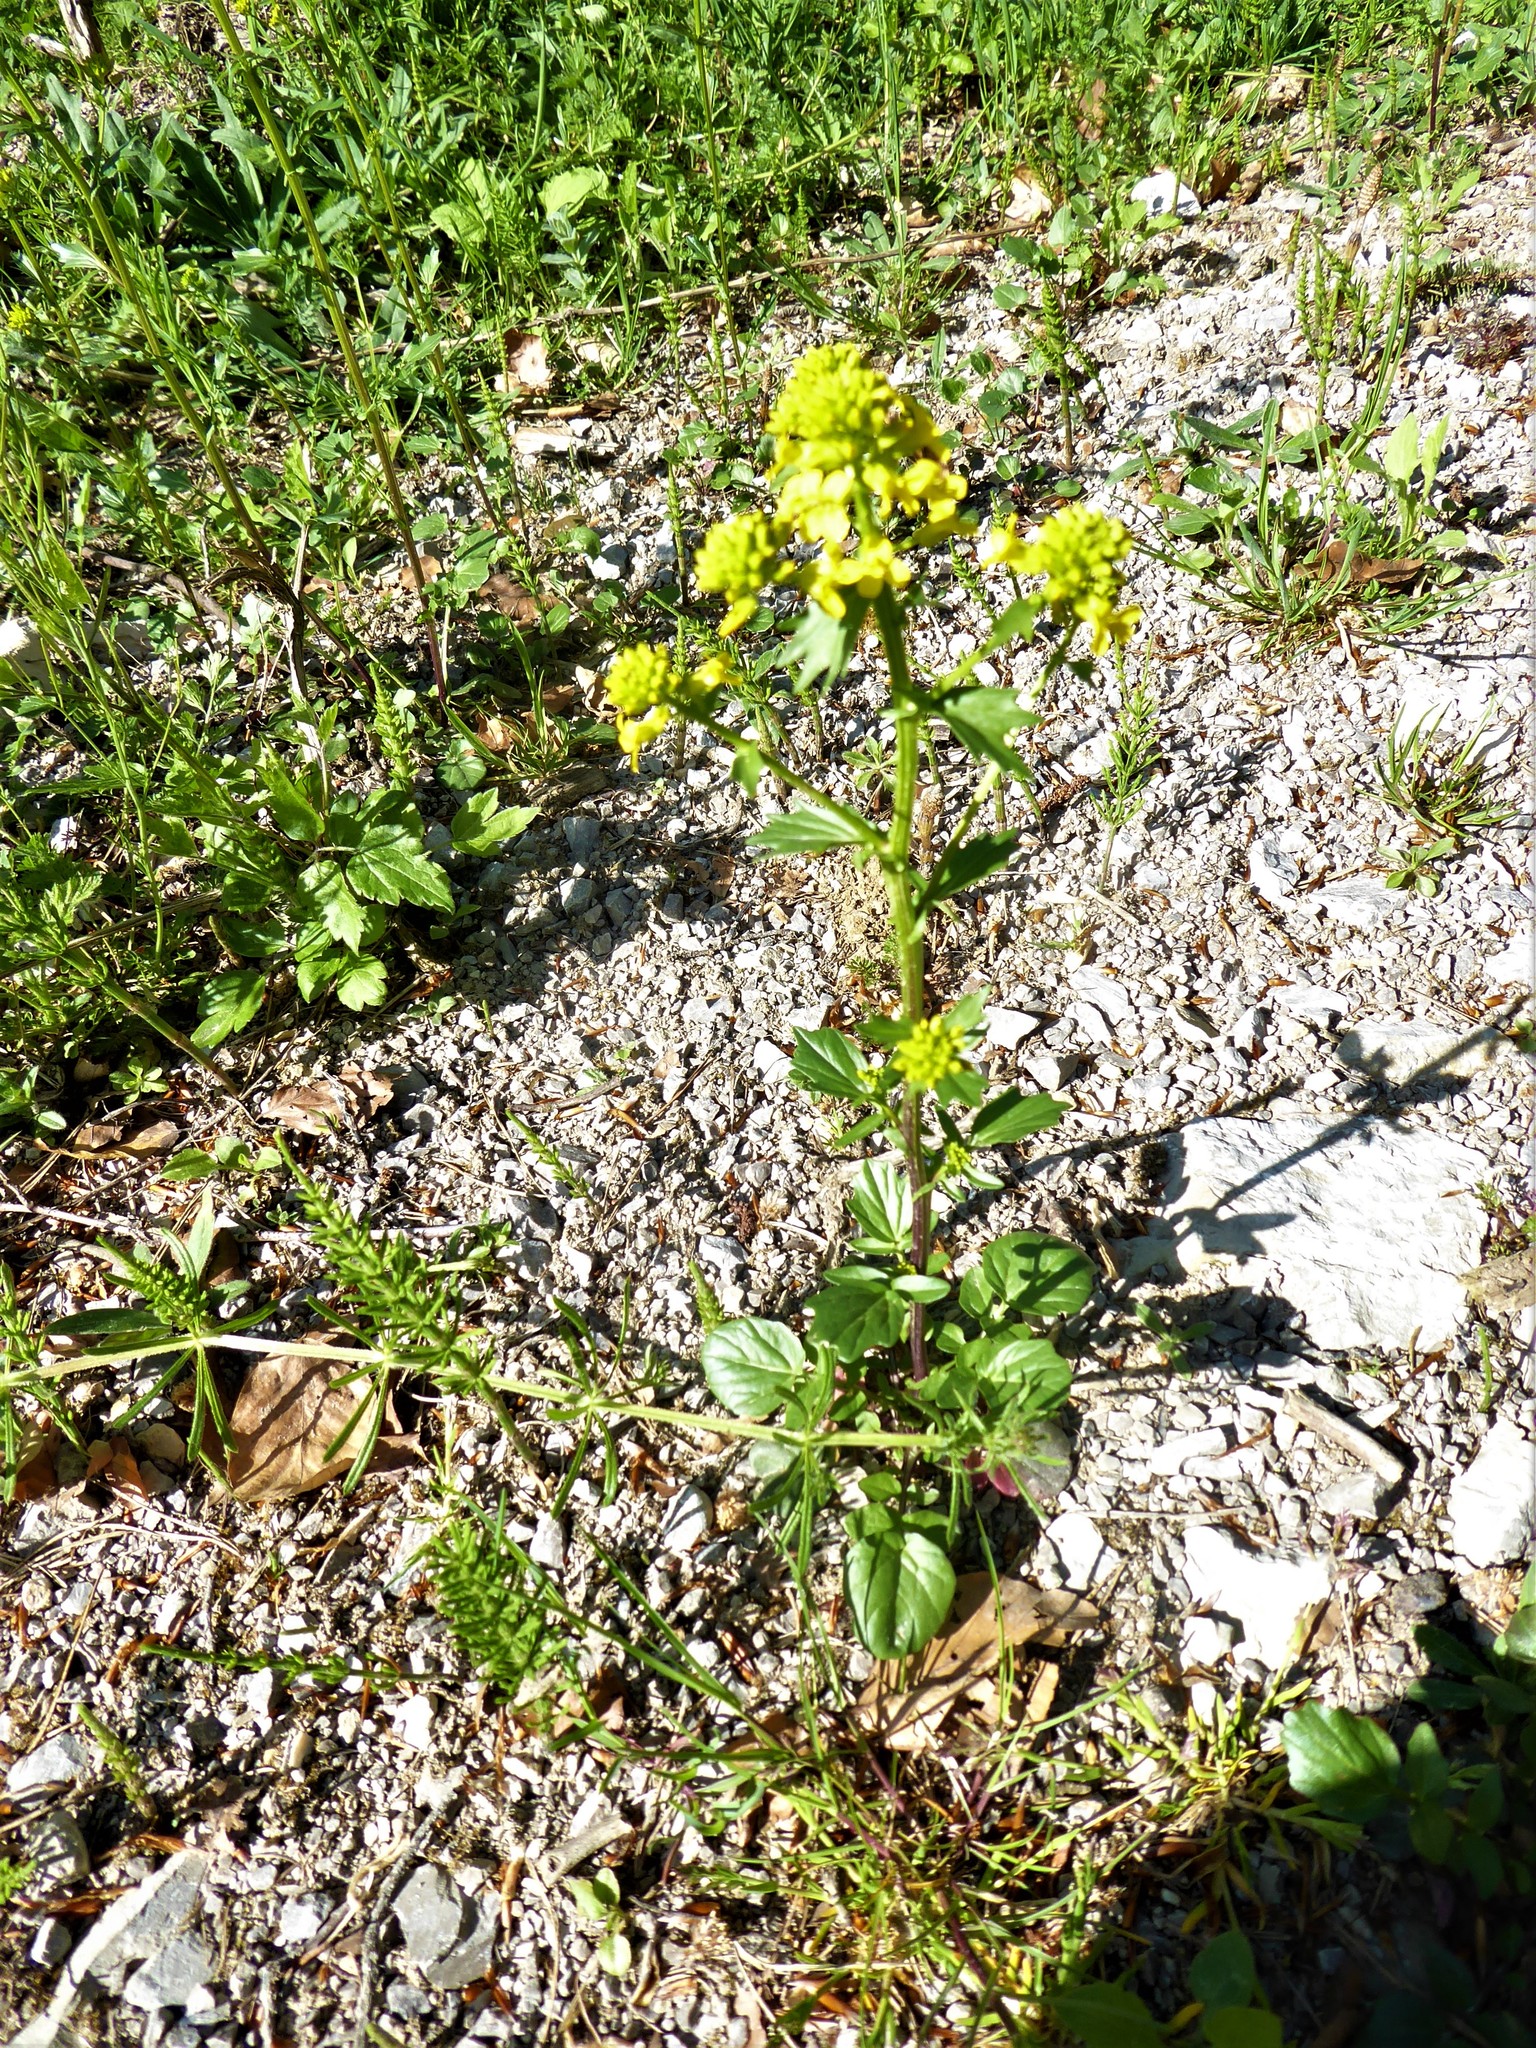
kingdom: Plantae
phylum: Tracheophyta
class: Magnoliopsida
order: Brassicales
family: Brassicaceae
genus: Barbarea
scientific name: Barbarea vulgaris
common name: Cressy-greens
